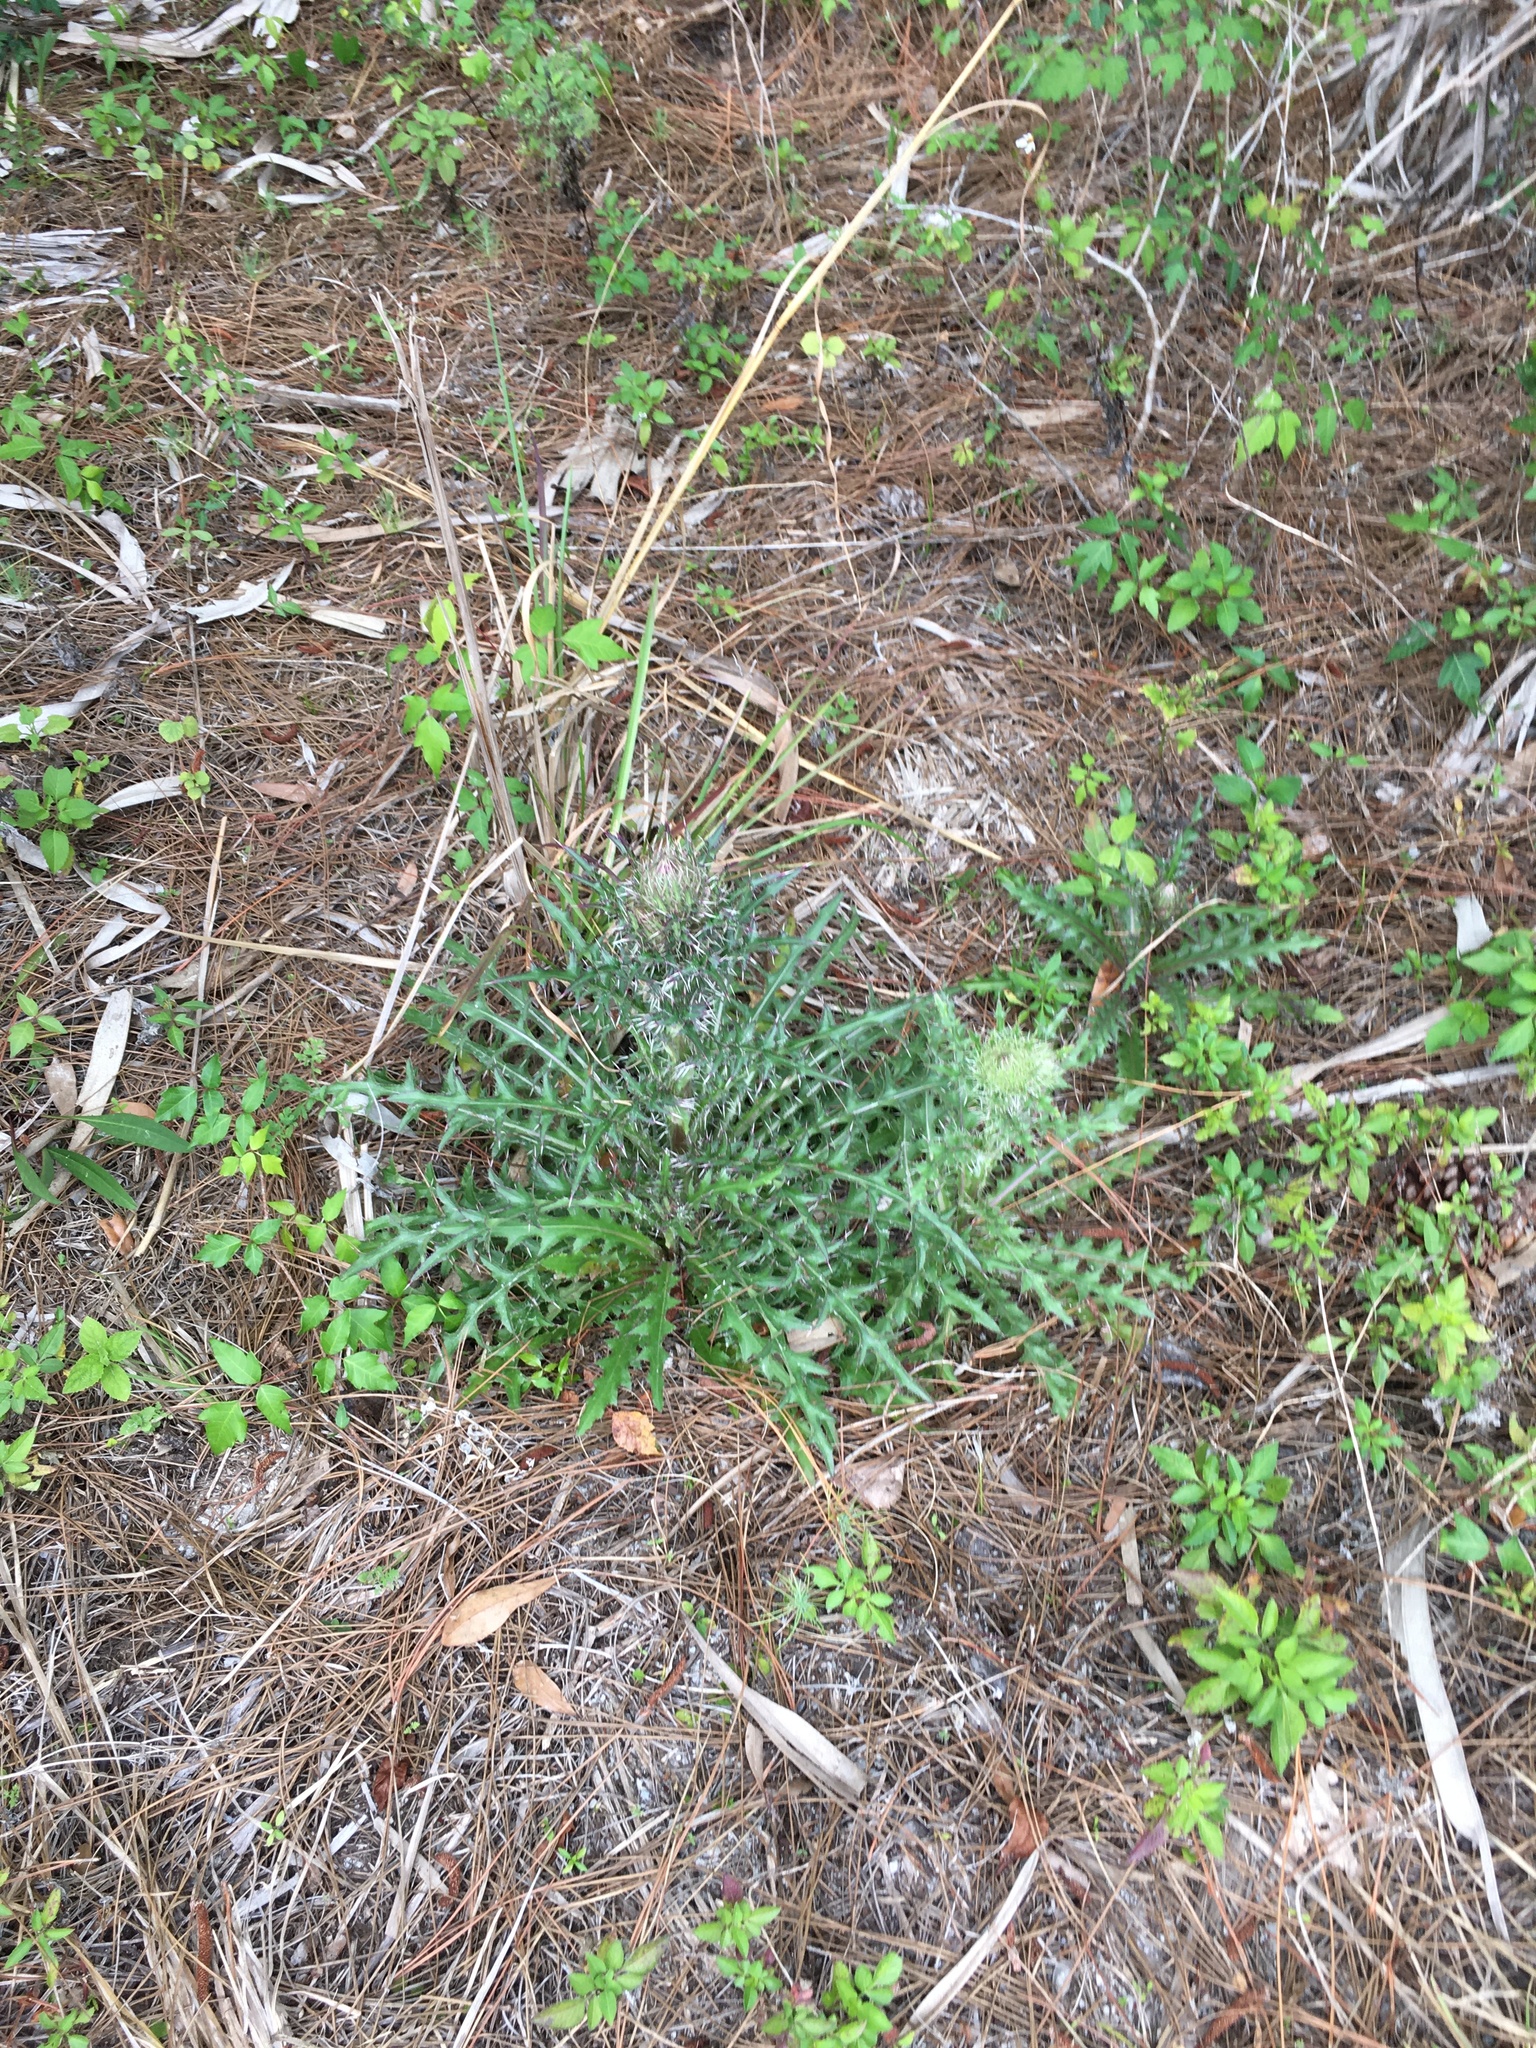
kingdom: Plantae
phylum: Tracheophyta
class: Magnoliopsida
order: Asterales
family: Asteraceae
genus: Cirsium
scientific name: Cirsium horridulum
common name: Bristly thistle
